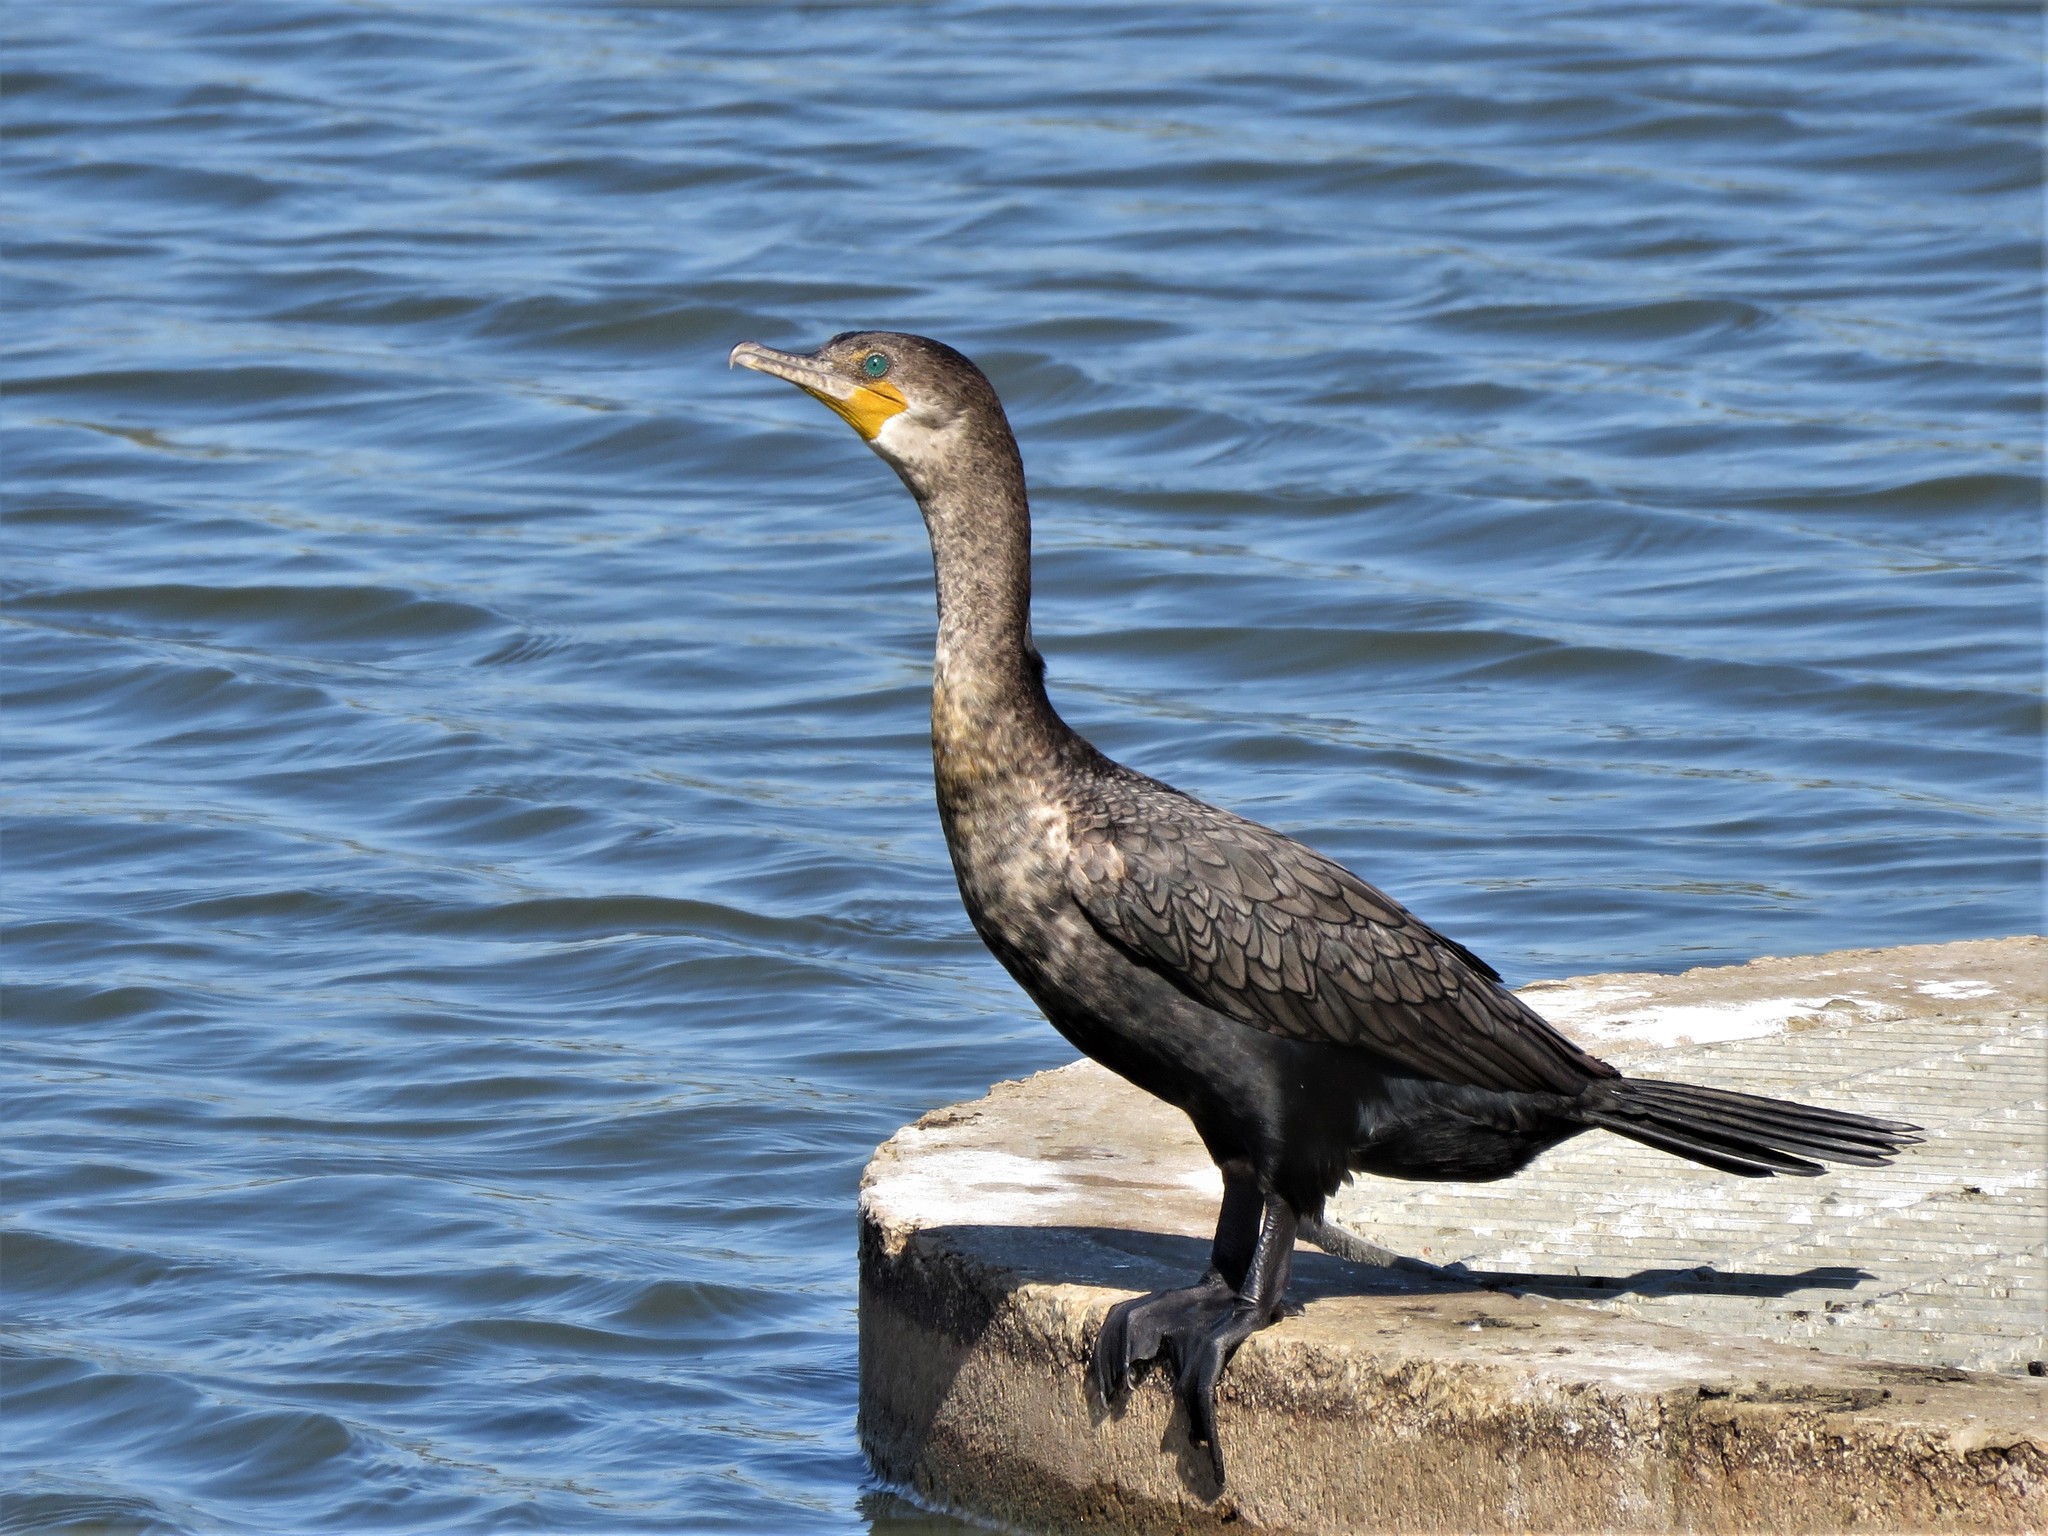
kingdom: Animalia
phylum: Chordata
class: Aves
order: Suliformes
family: Phalacrocoracidae
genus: Phalacrocorax
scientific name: Phalacrocorax auritus
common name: Double-crested cormorant
